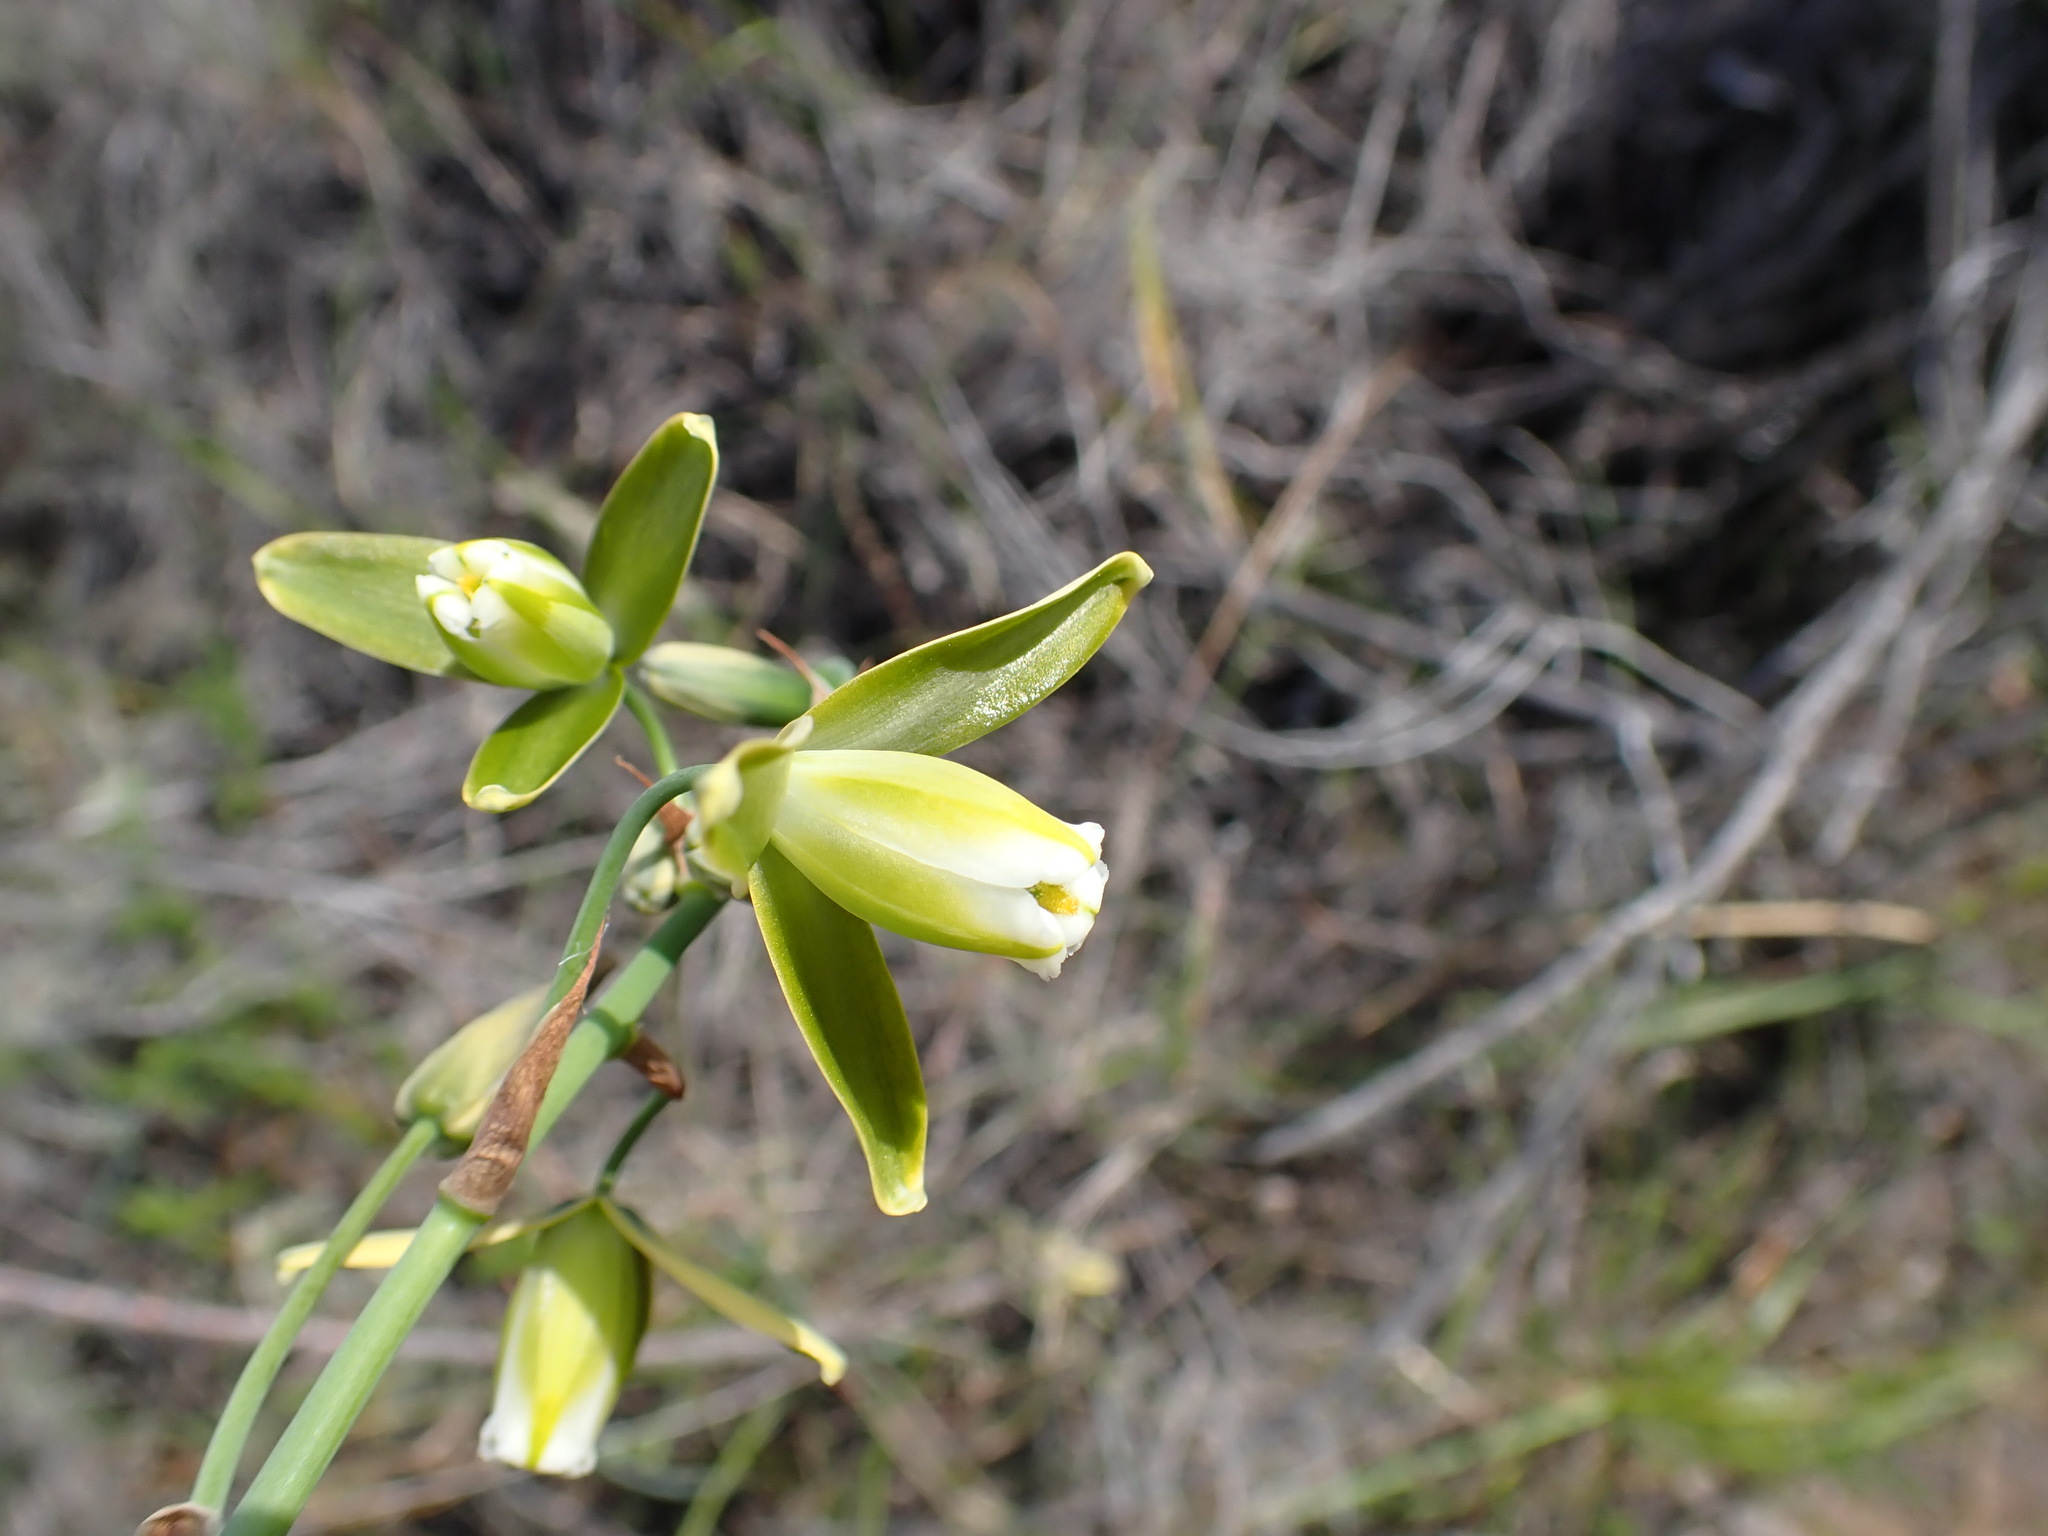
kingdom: Plantae
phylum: Tracheophyta
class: Liliopsida
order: Asparagales
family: Asparagaceae
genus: Albuca
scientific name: Albuca cooperi
